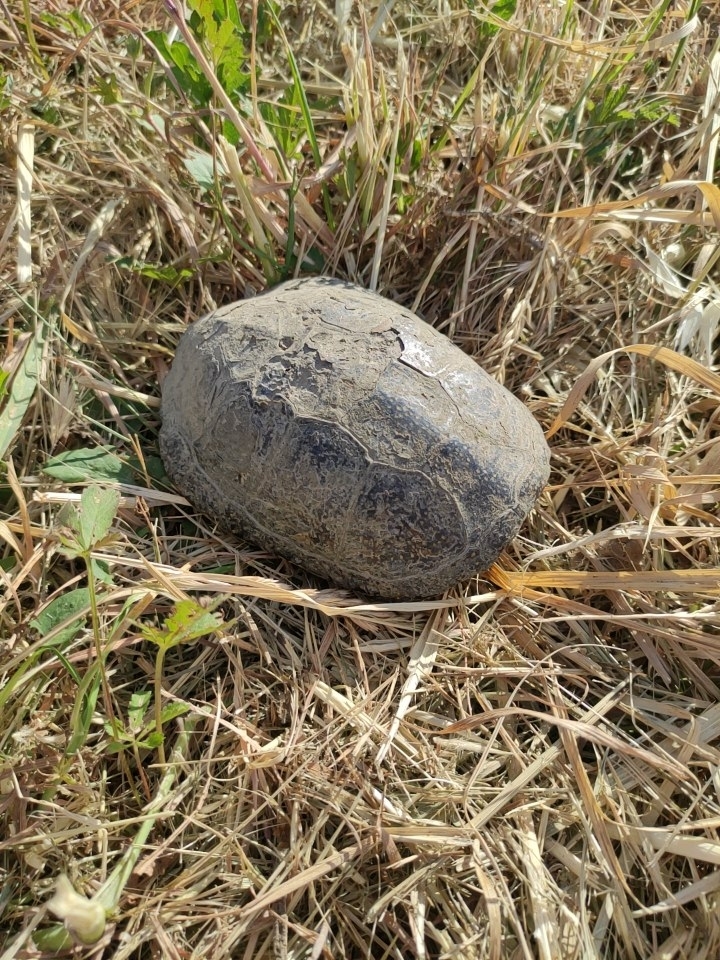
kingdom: Animalia
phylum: Chordata
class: Testudines
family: Emydidae
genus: Emys
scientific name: Emys orbicularis
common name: European pond turtle
